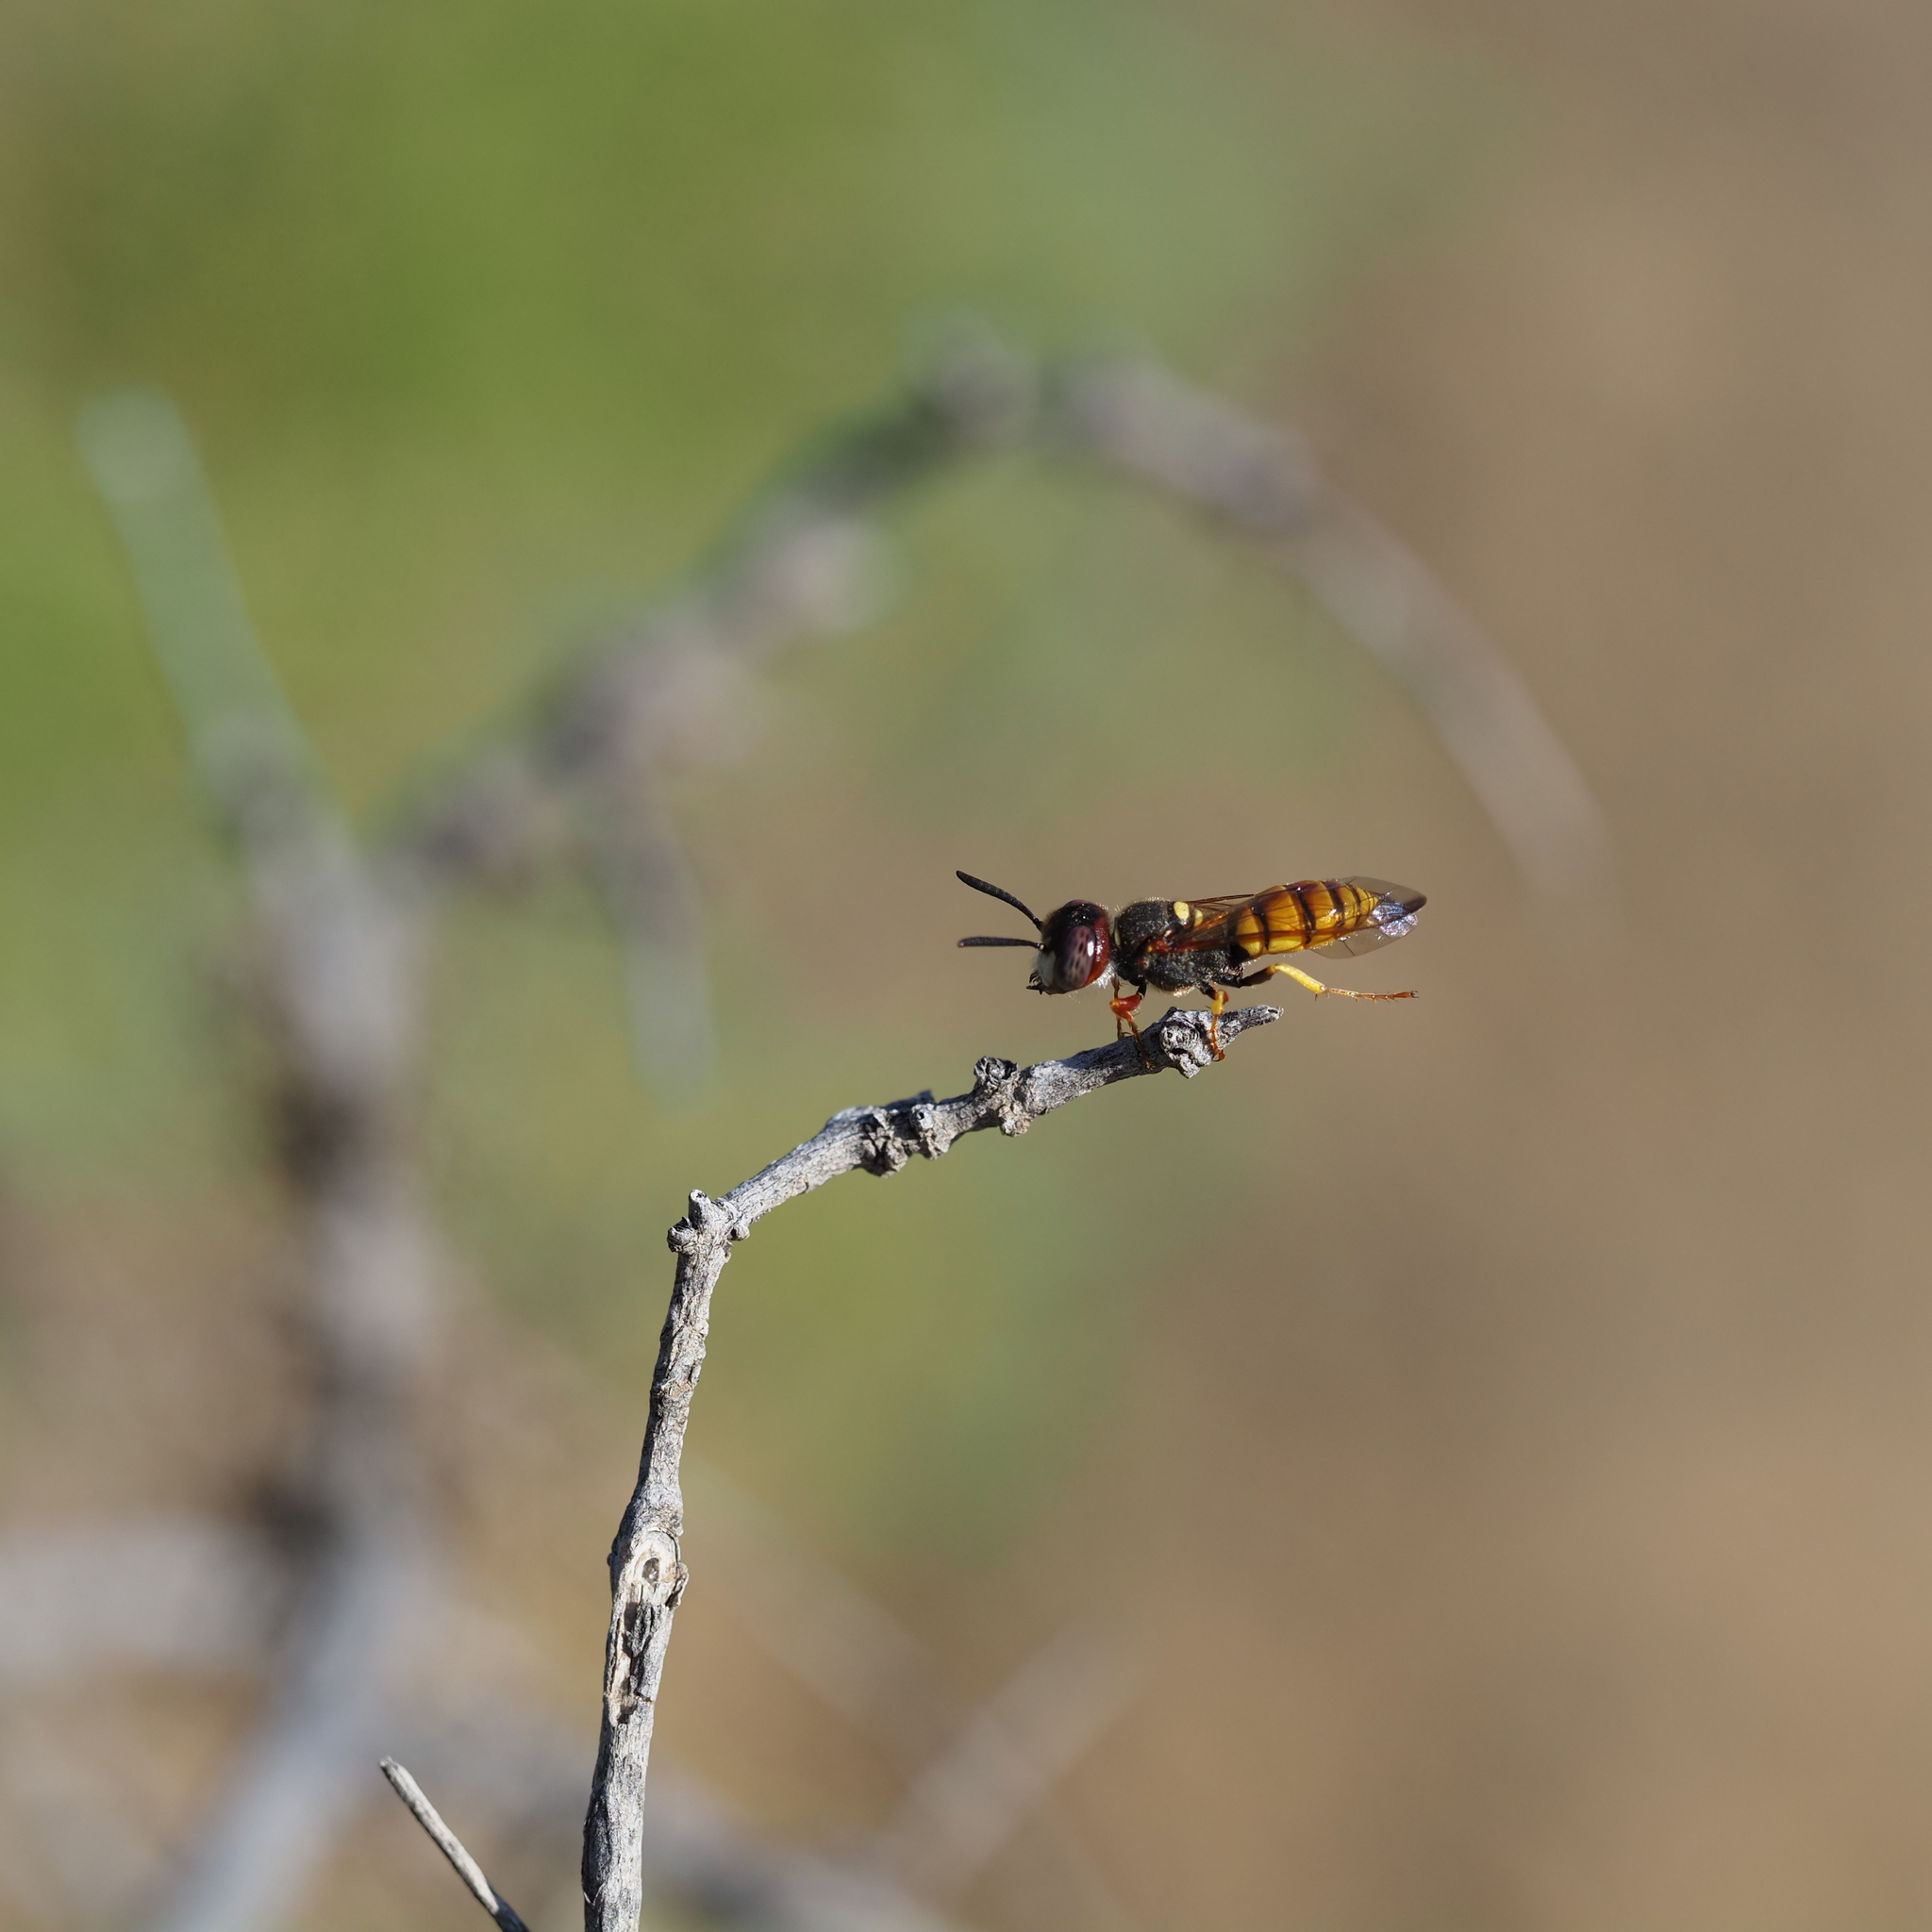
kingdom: Animalia
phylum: Arthropoda
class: Insecta
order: Hymenoptera
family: Crabronidae
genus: Philanthus
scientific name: Philanthus triangulum
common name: Bee wolf
